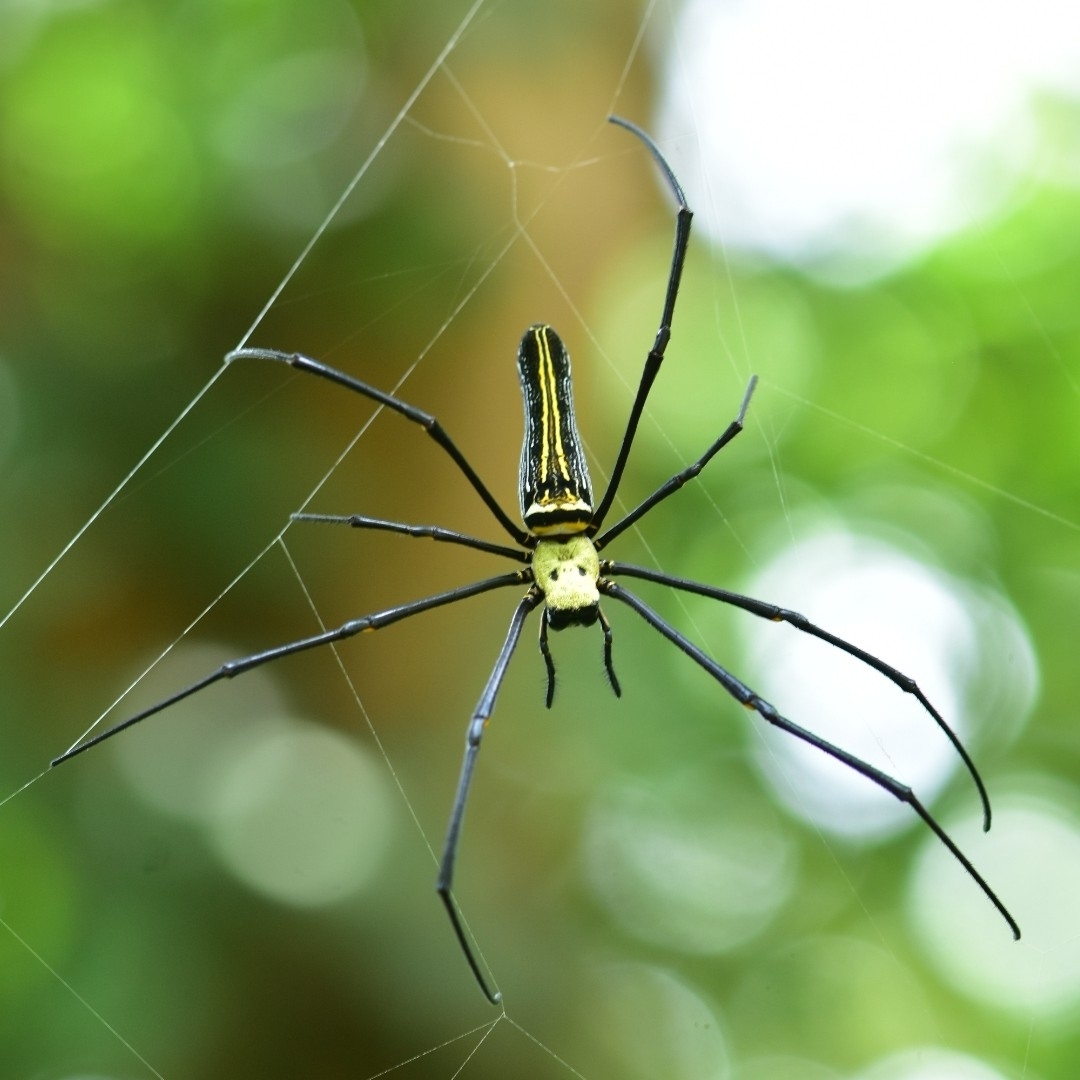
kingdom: Animalia
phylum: Arthropoda
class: Arachnida
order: Araneae
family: Araneidae
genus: Nephila
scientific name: Nephila pilipes
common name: Giant golden orb weaver
